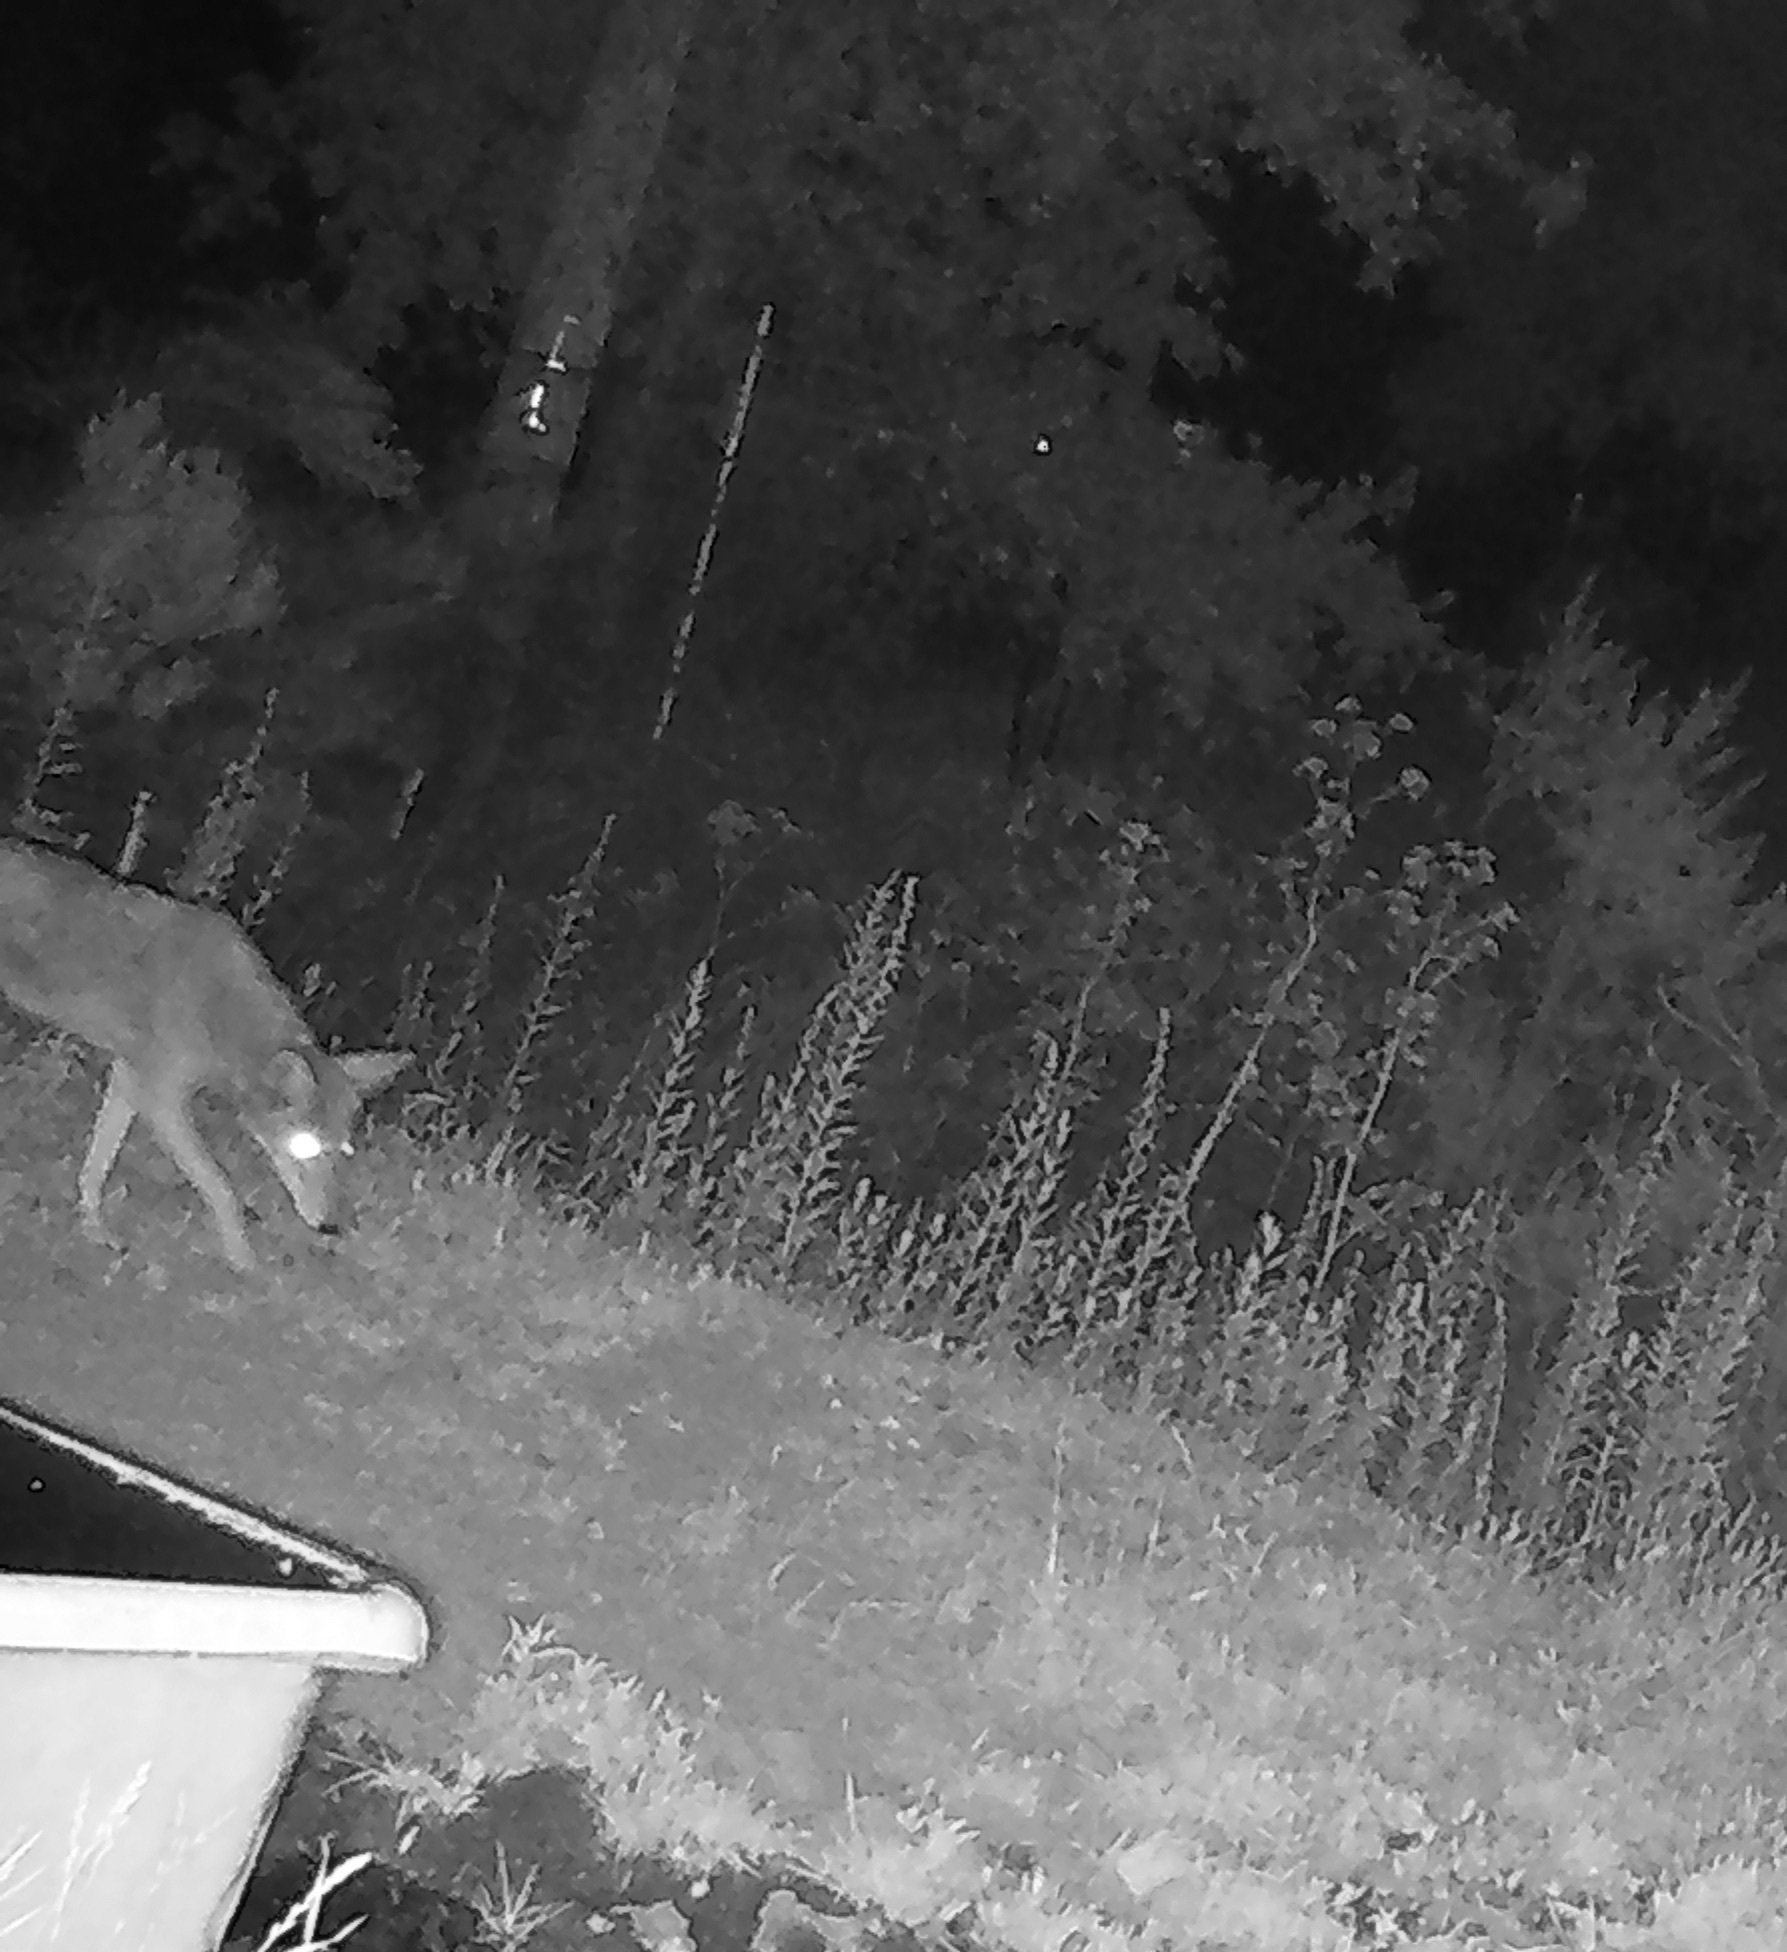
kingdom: Animalia
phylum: Chordata
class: Mammalia
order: Carnivora
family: Canidae
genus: Canis
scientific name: Canis latrans
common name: Coyote
